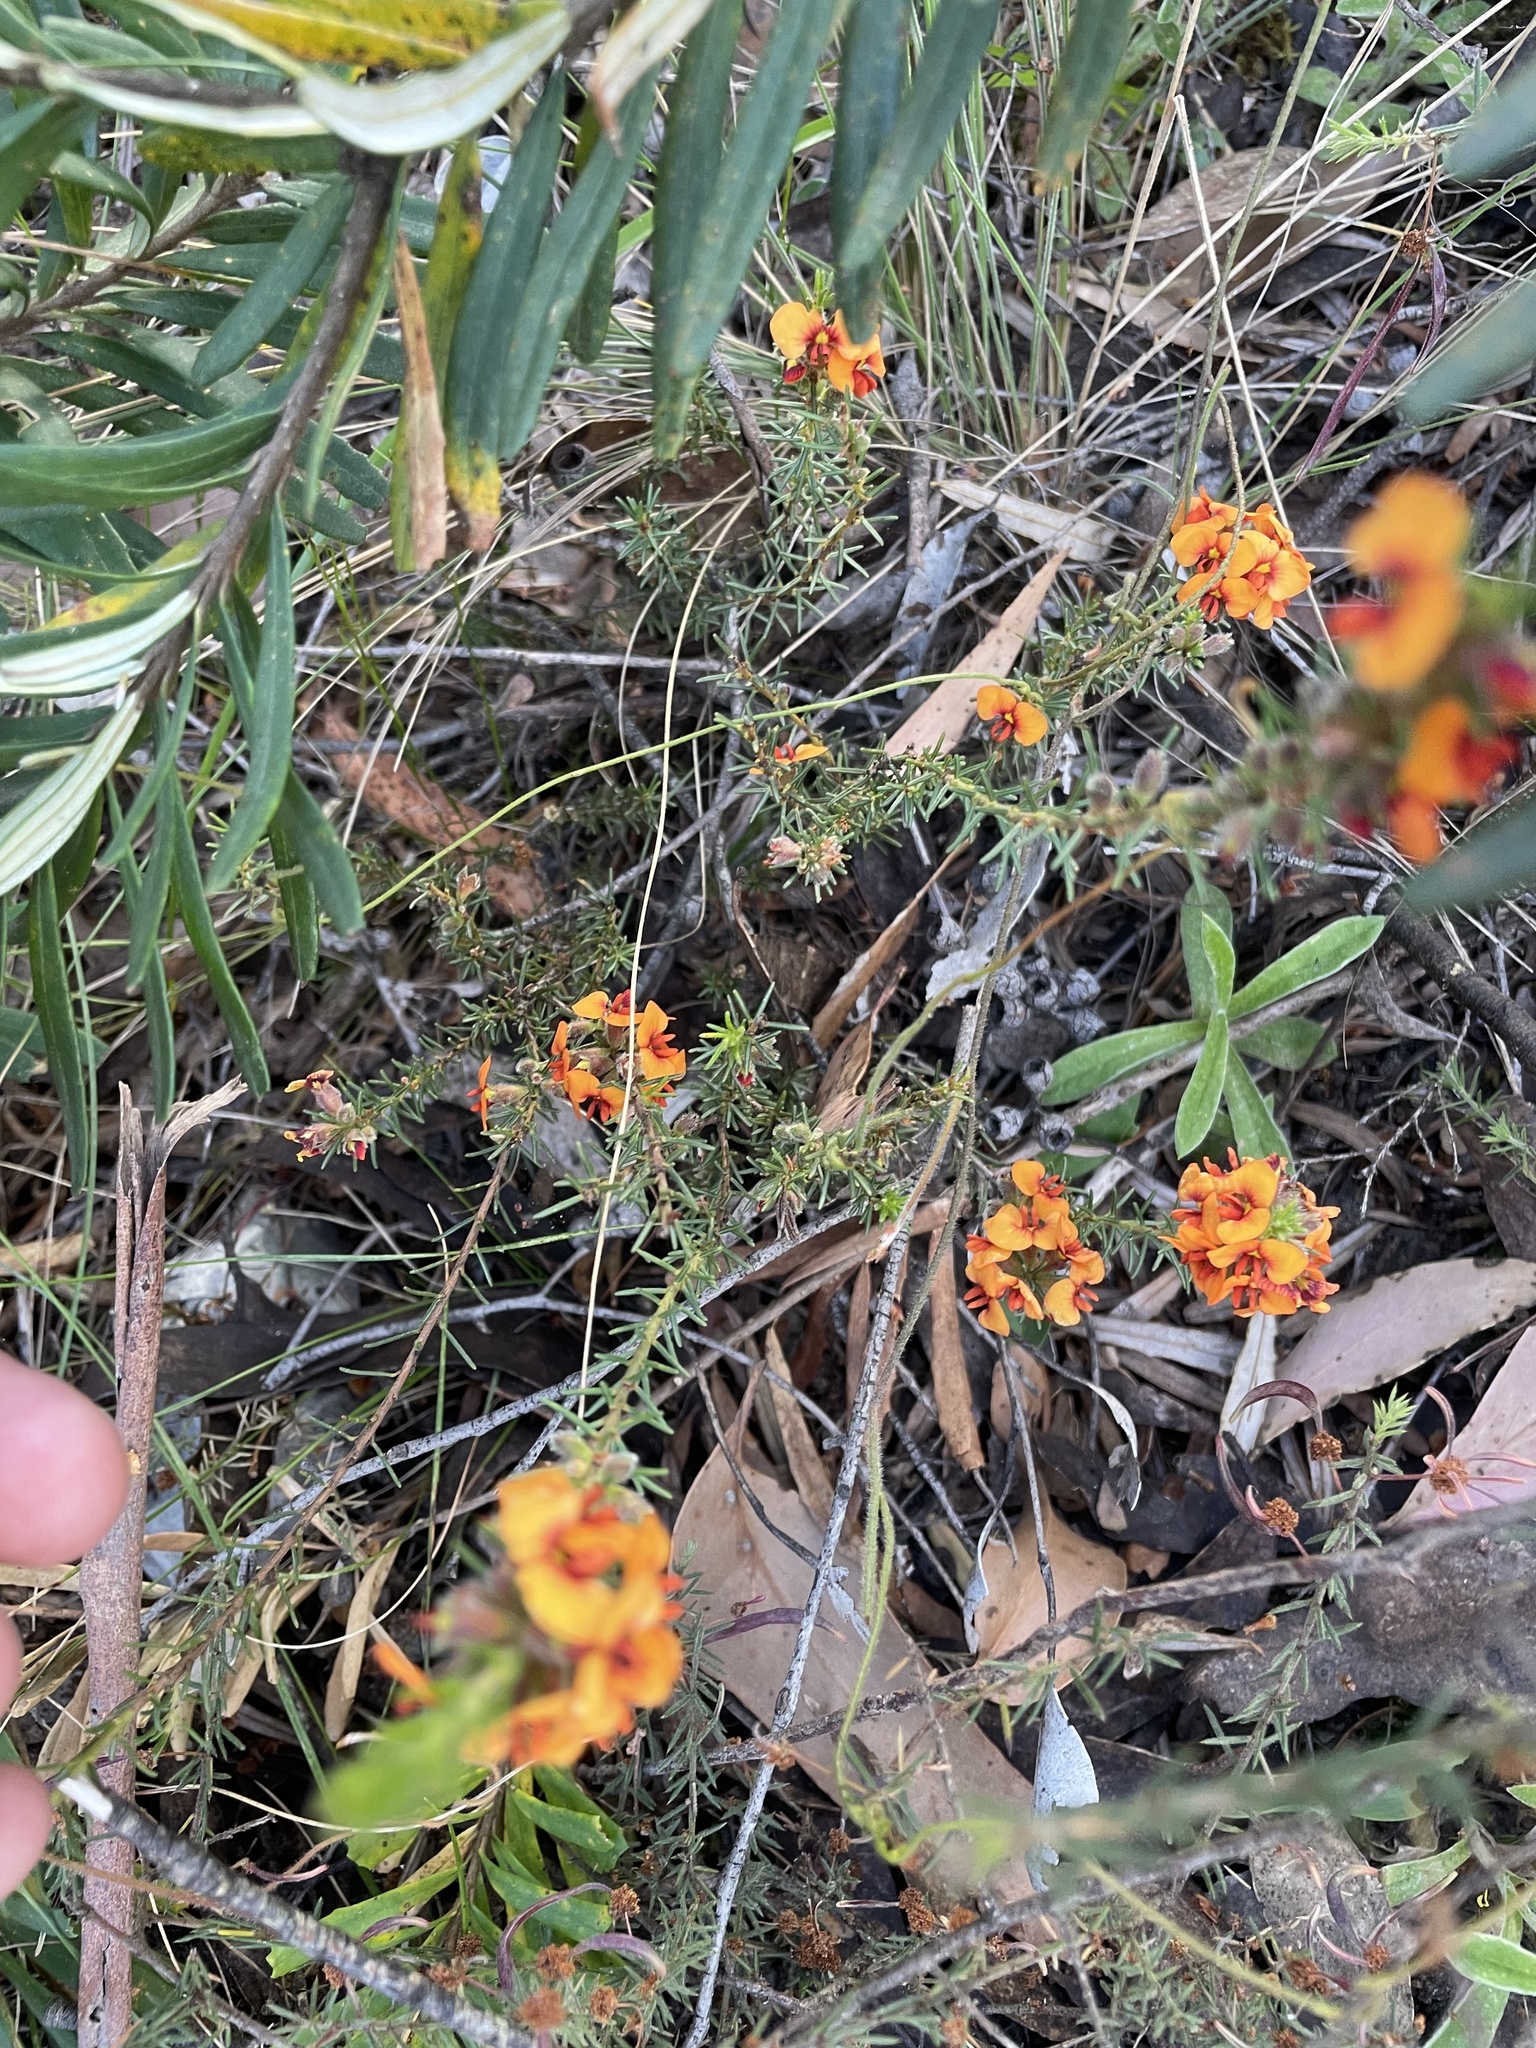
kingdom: Plantae
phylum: Tracheophyta
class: Magnoliopsida
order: Fabales
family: Fabaceae
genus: Dillwynia
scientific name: Dillwynia sericea
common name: Showy parrot-pea
